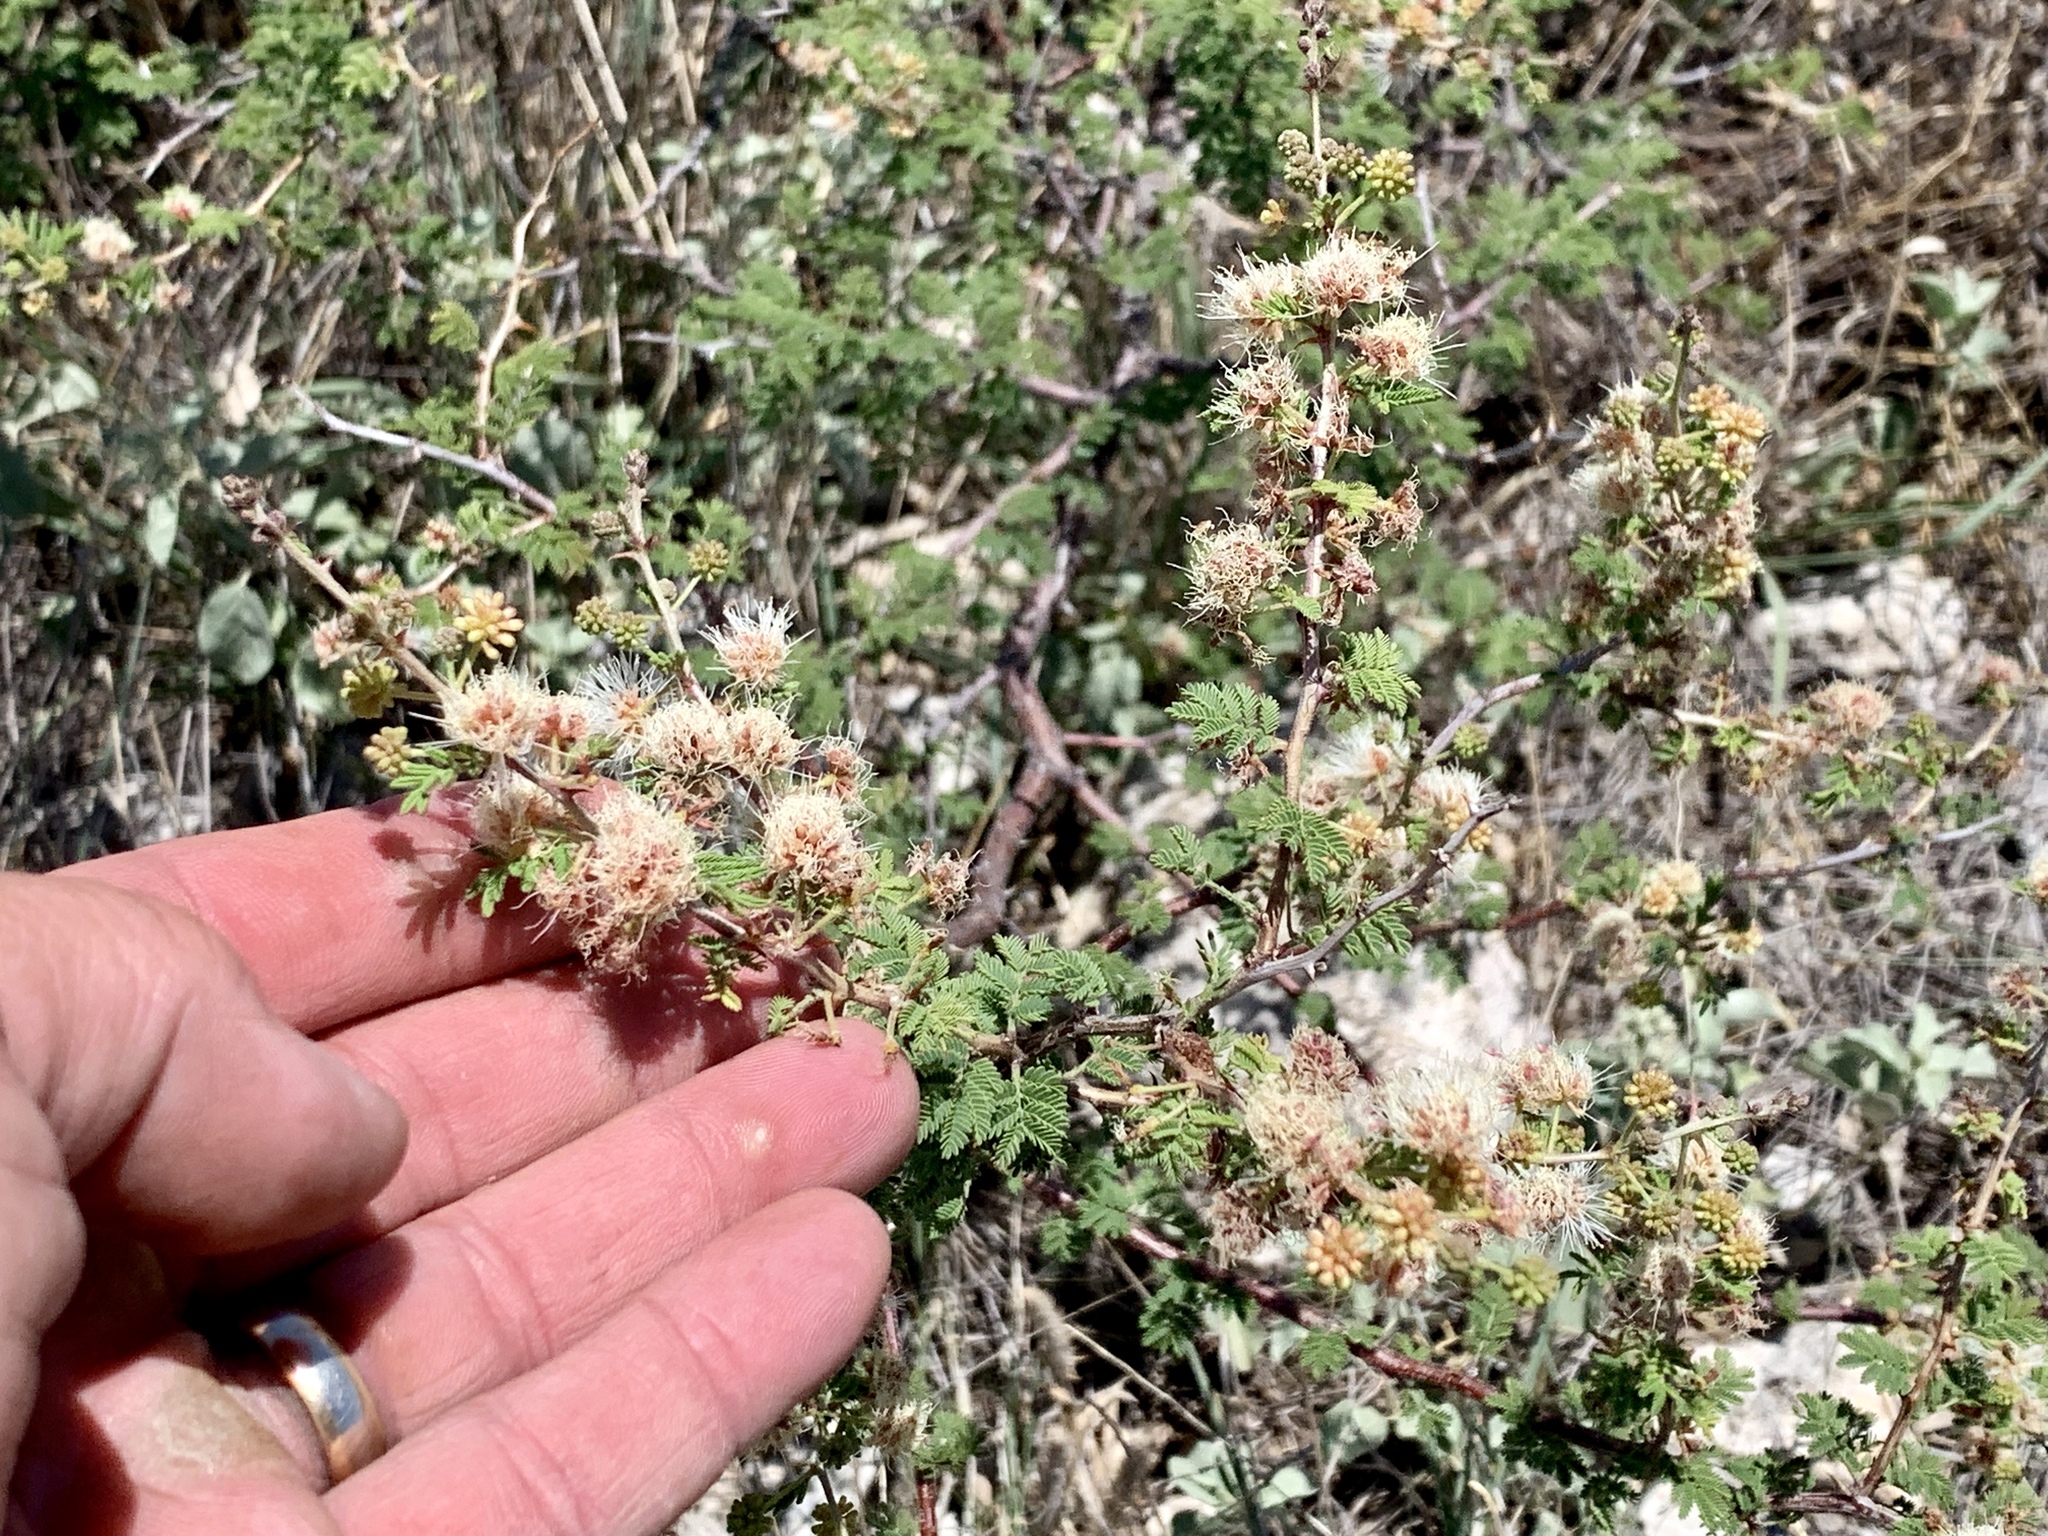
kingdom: Plantae
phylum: Tracheophyta
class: Magnoliopsida
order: Fabales
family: Fabaceae
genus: Mimosa
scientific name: Mimosa aculeaticarpa
